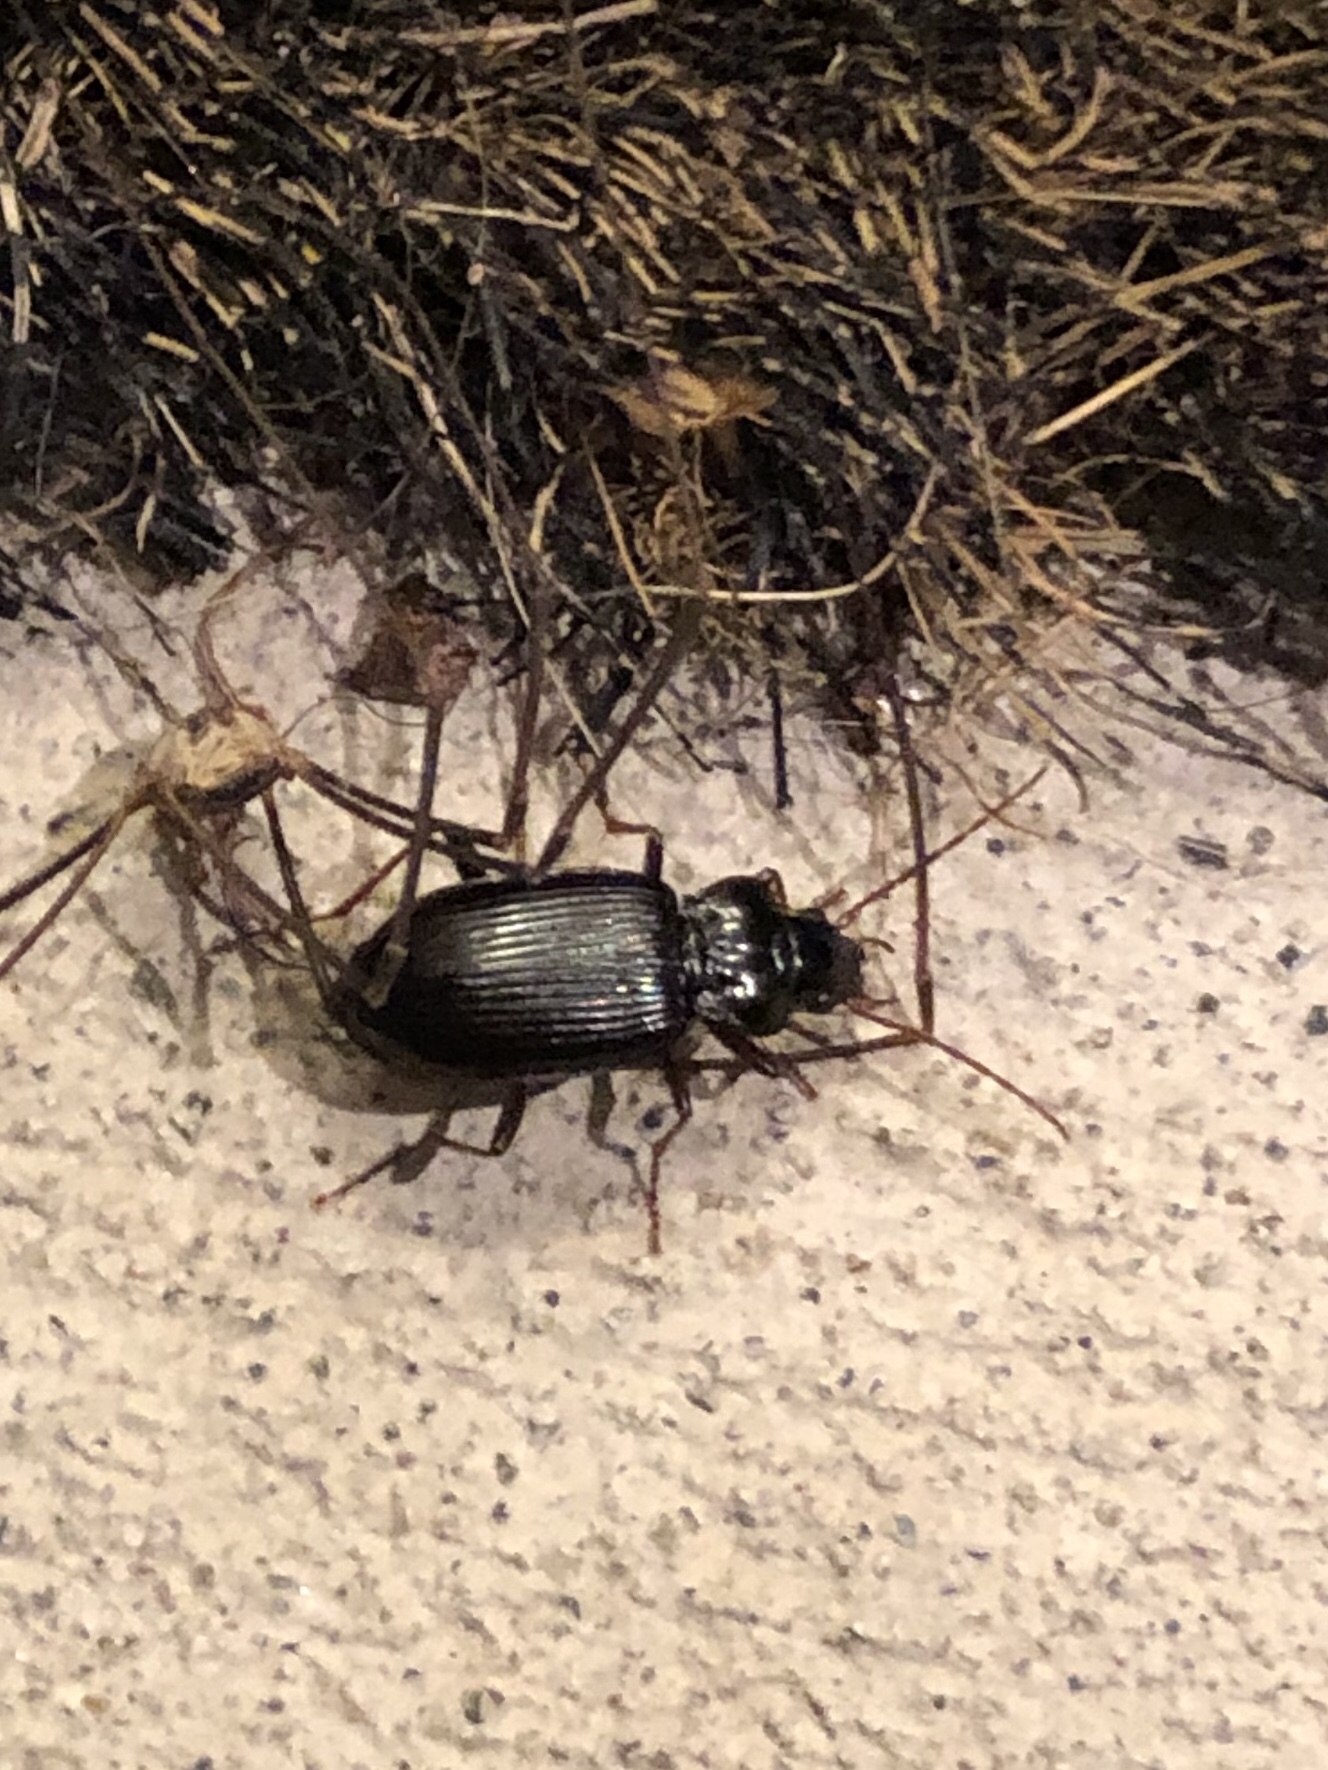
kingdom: Animalia
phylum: Arthropoda
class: Insecta
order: Coleoptera
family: Carabidae
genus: Nebria
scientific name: Nebria brevicollis
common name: Short-necked gazelle beetle
